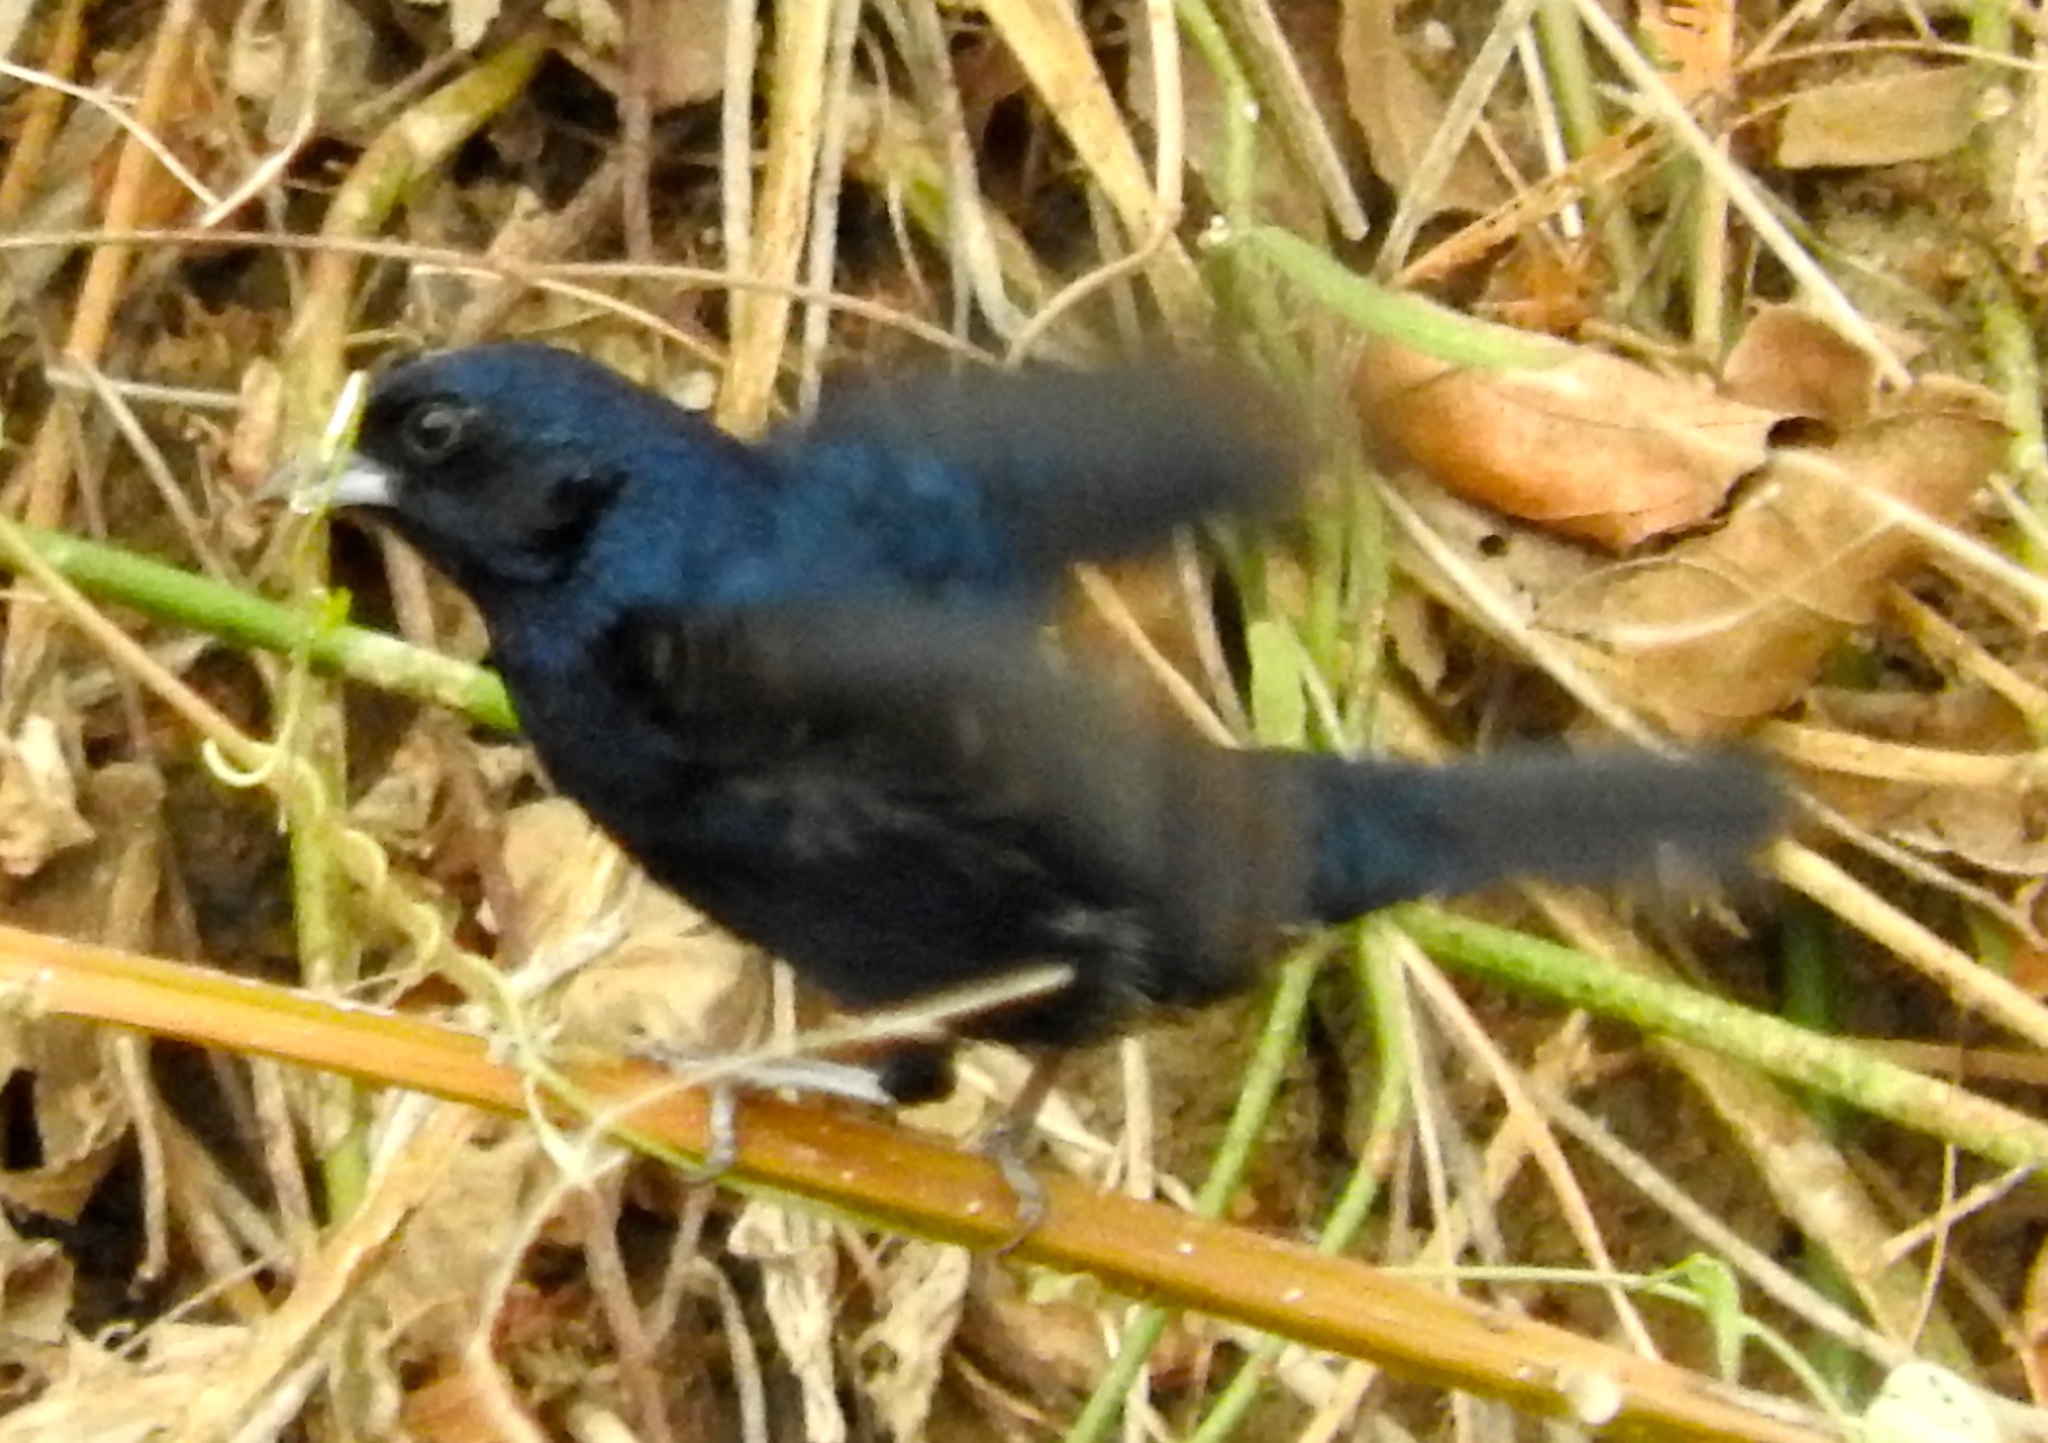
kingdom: Animalia
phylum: Chordata
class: Aves
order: Passeriformes
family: Thraupidae
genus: Volatinia
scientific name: Volatinia jacarina
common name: Blue-black grassquit
